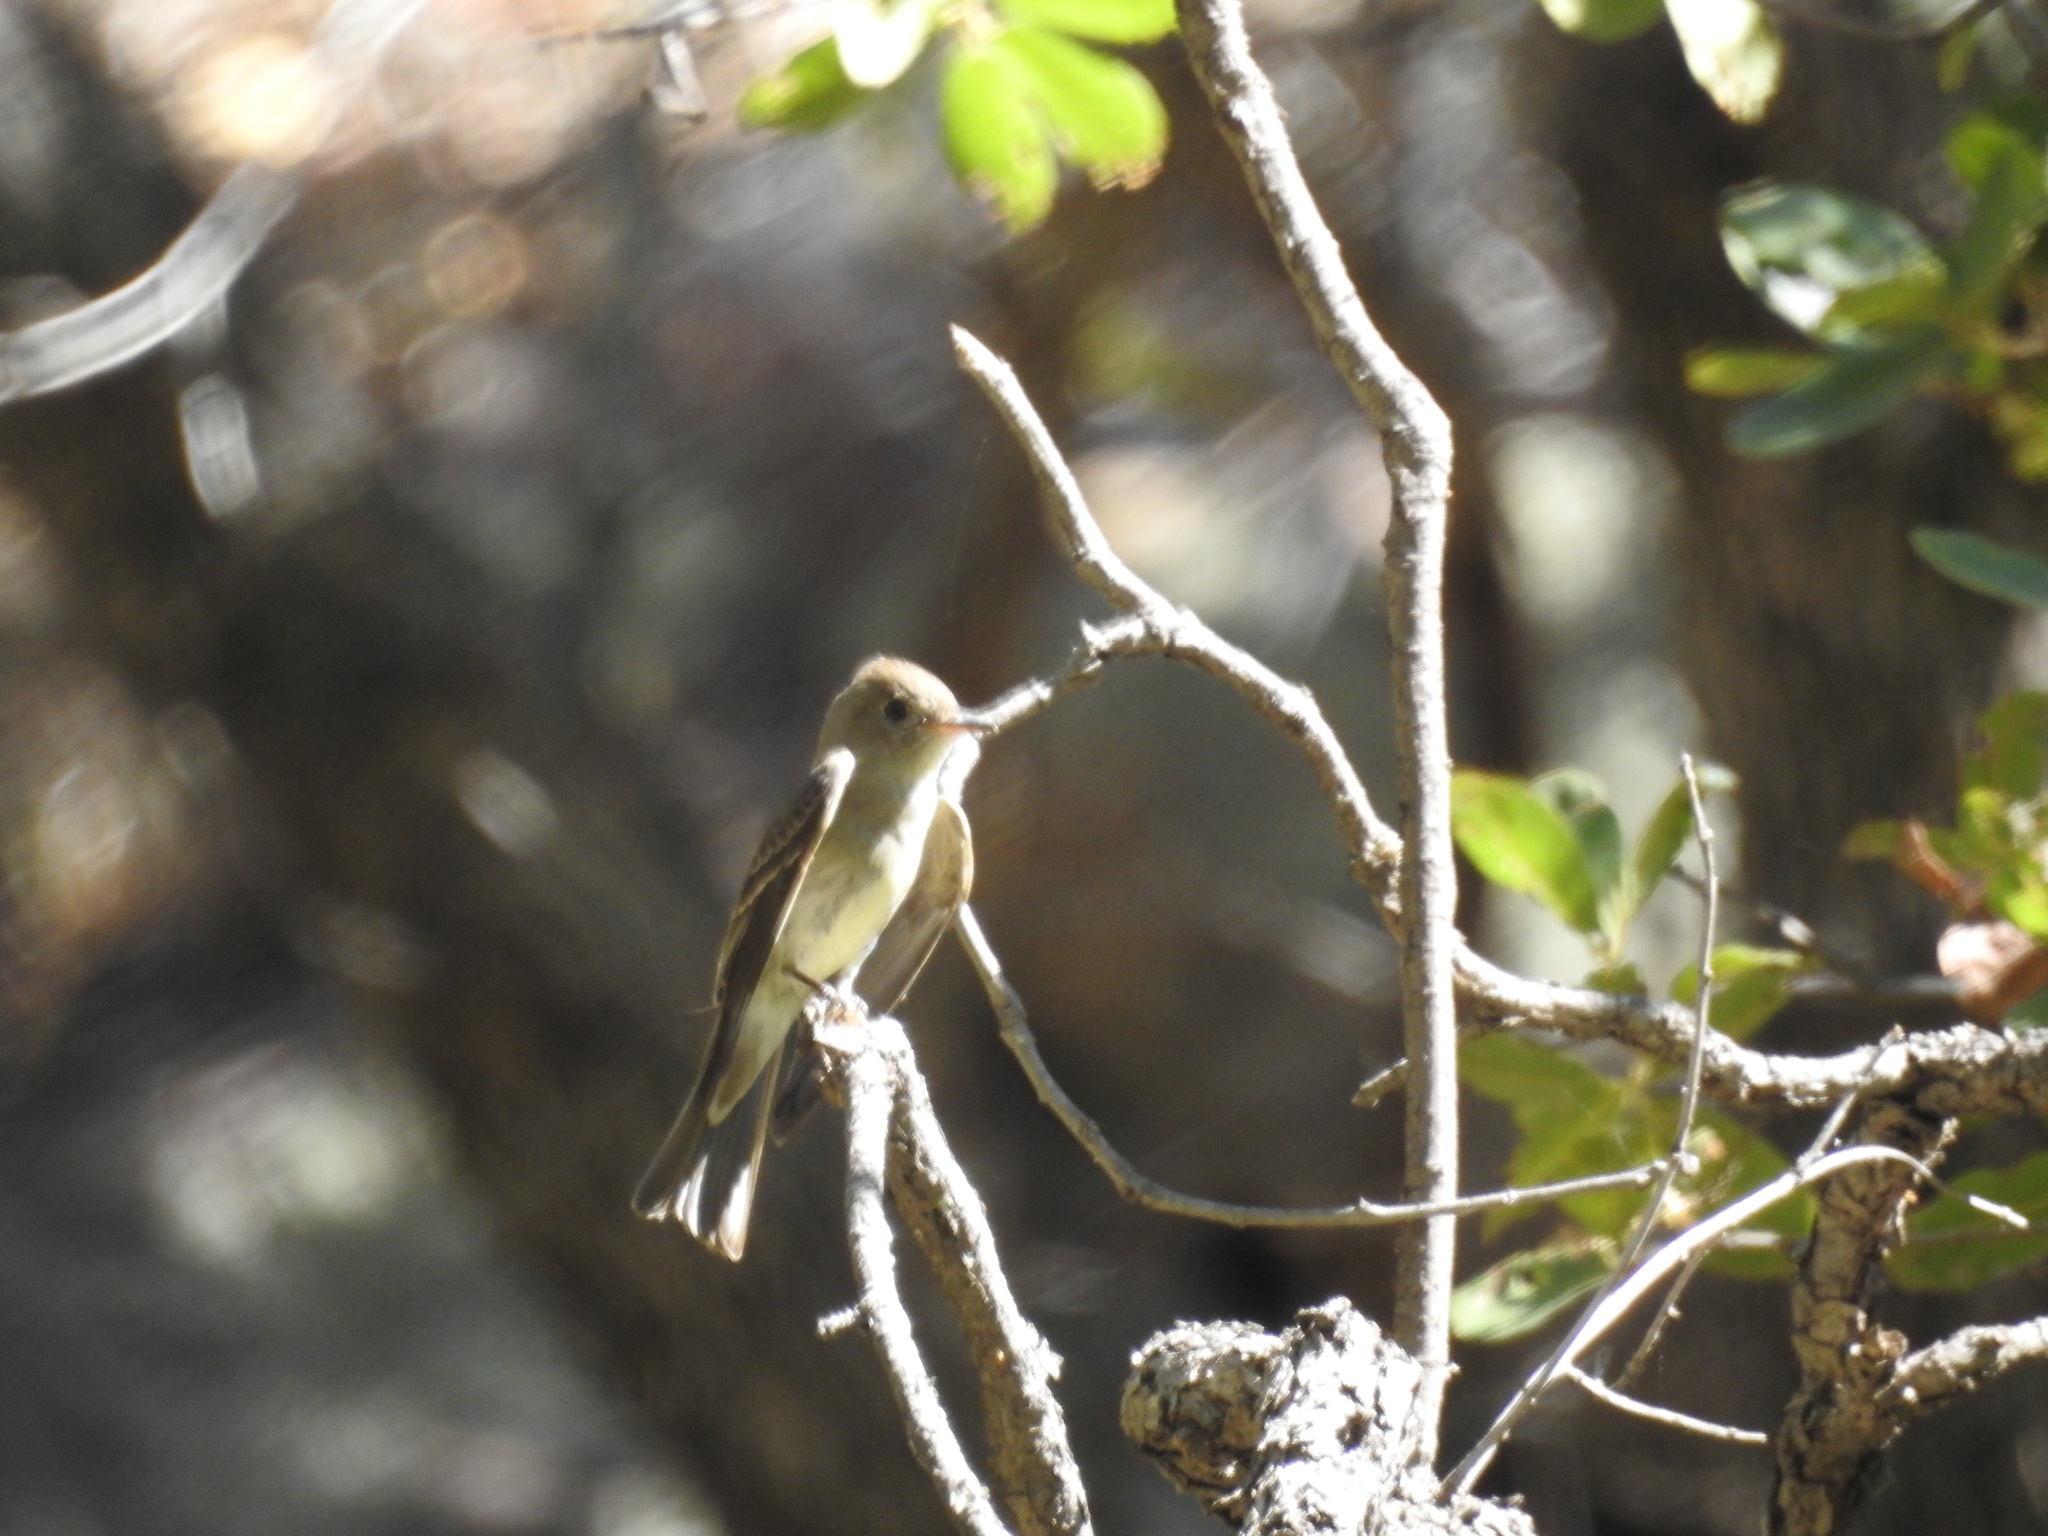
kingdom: Animalia
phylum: Chordata
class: Aves
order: Passeriformes
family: Tyrannidae
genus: Contopus
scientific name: Contopus sordidulus
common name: Western wood-pewee
